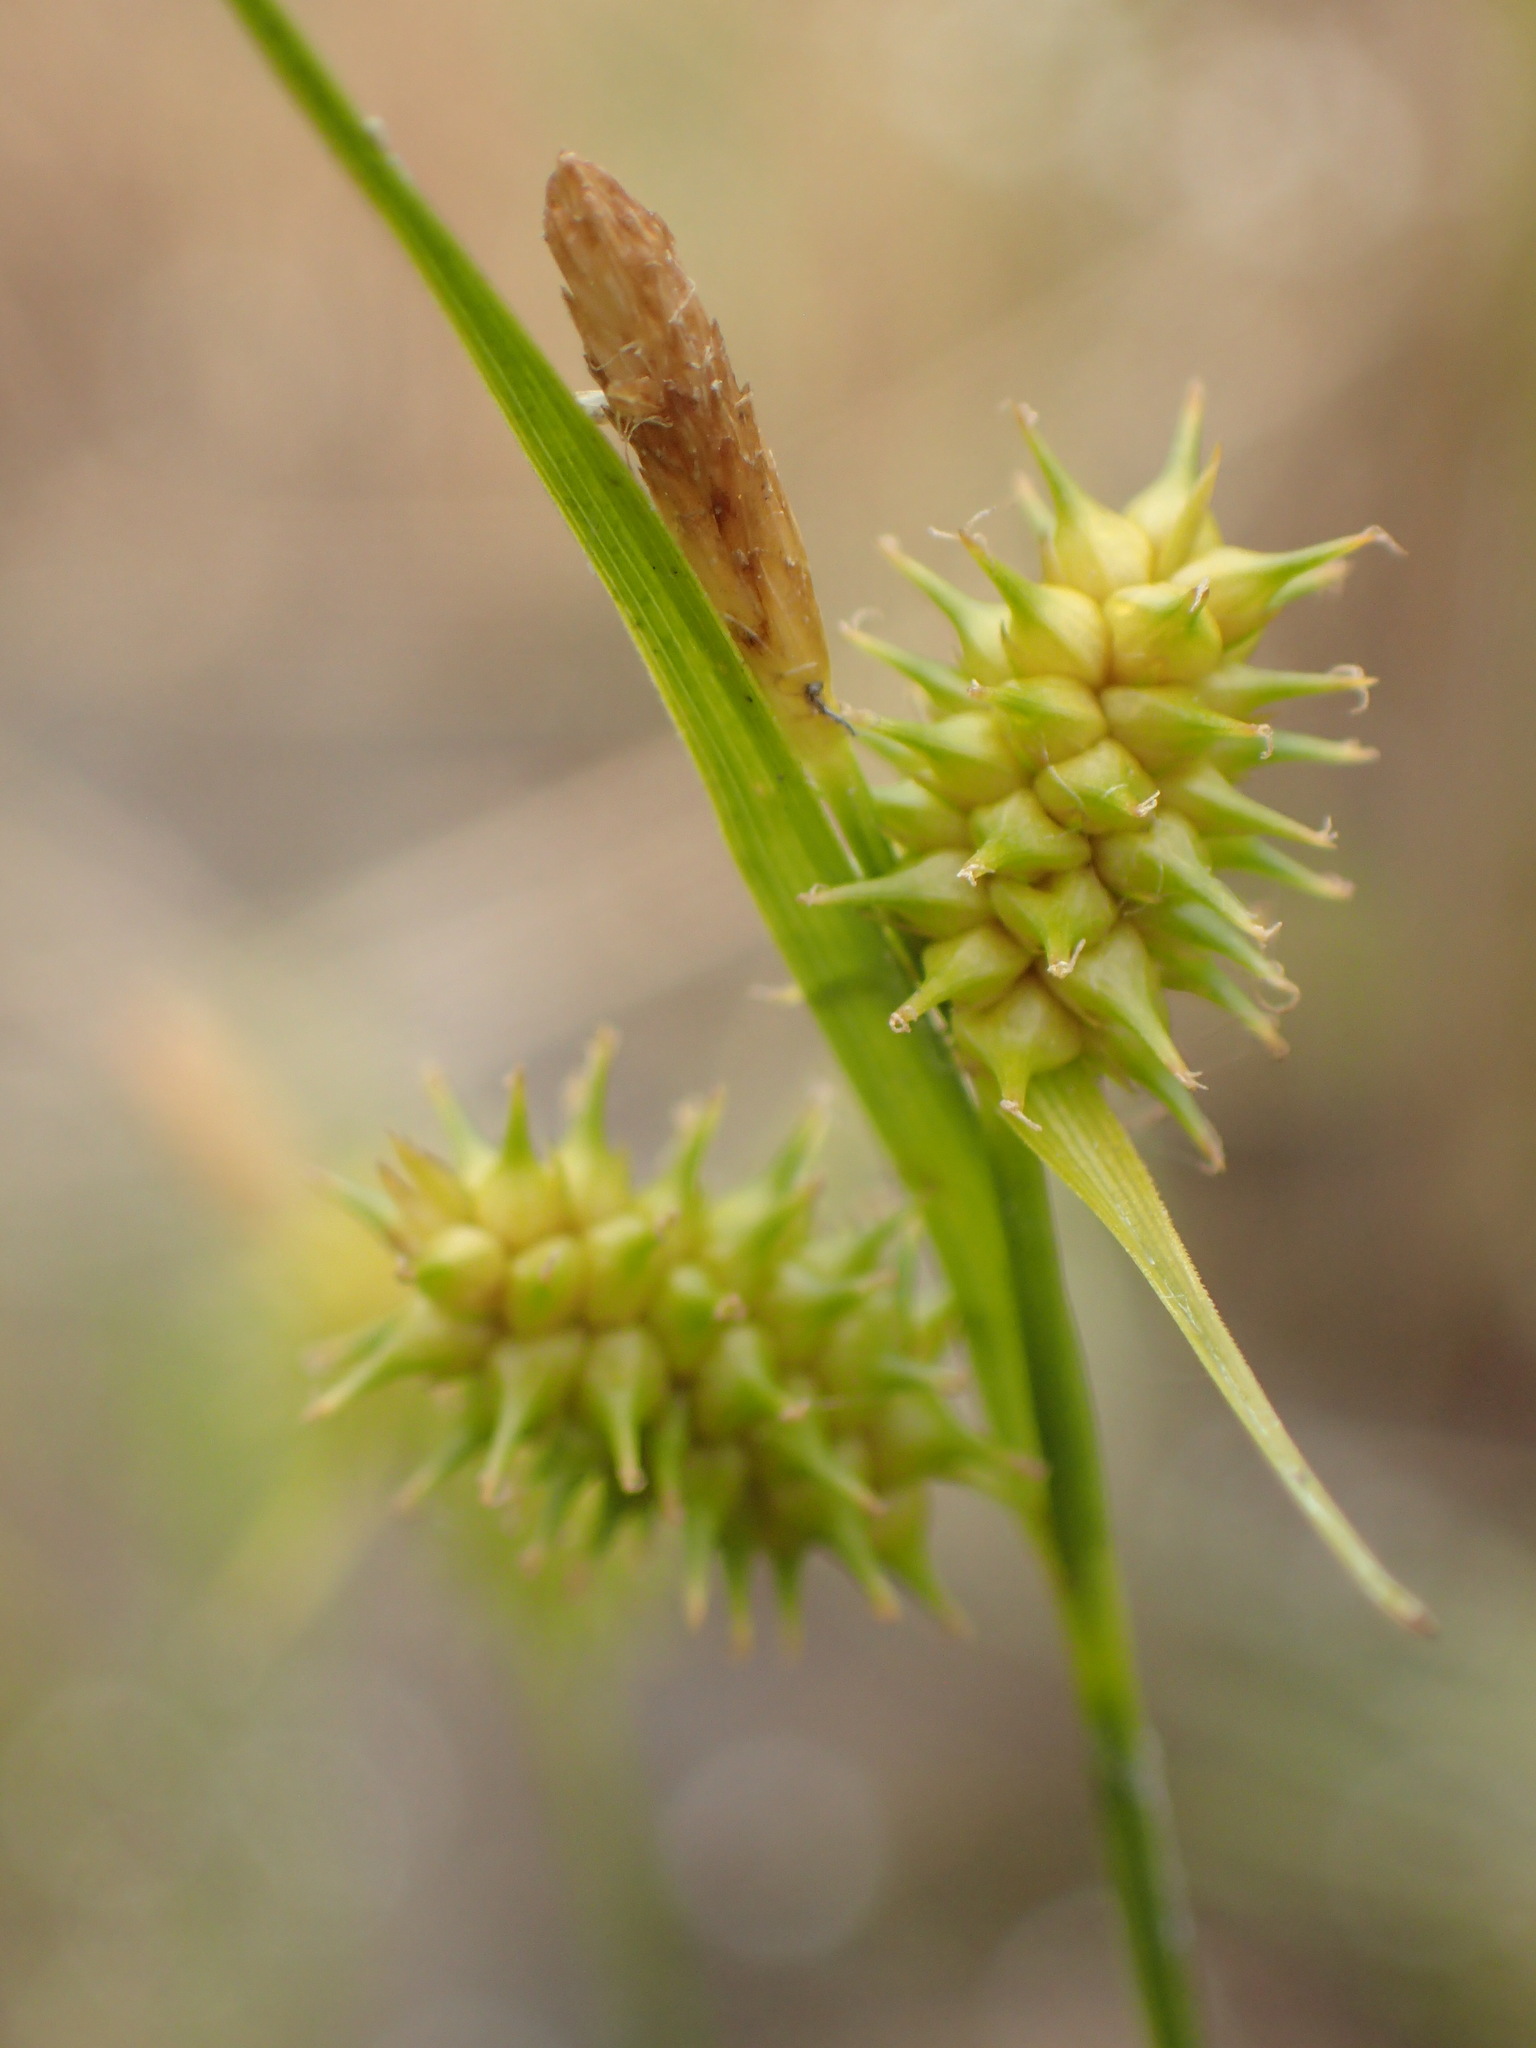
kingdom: Plantae
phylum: Tracheophyta
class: Liliopsida
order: Poales
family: Cyperaceae
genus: Carex
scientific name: Carex cryptolepis
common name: Northeastern sedge
